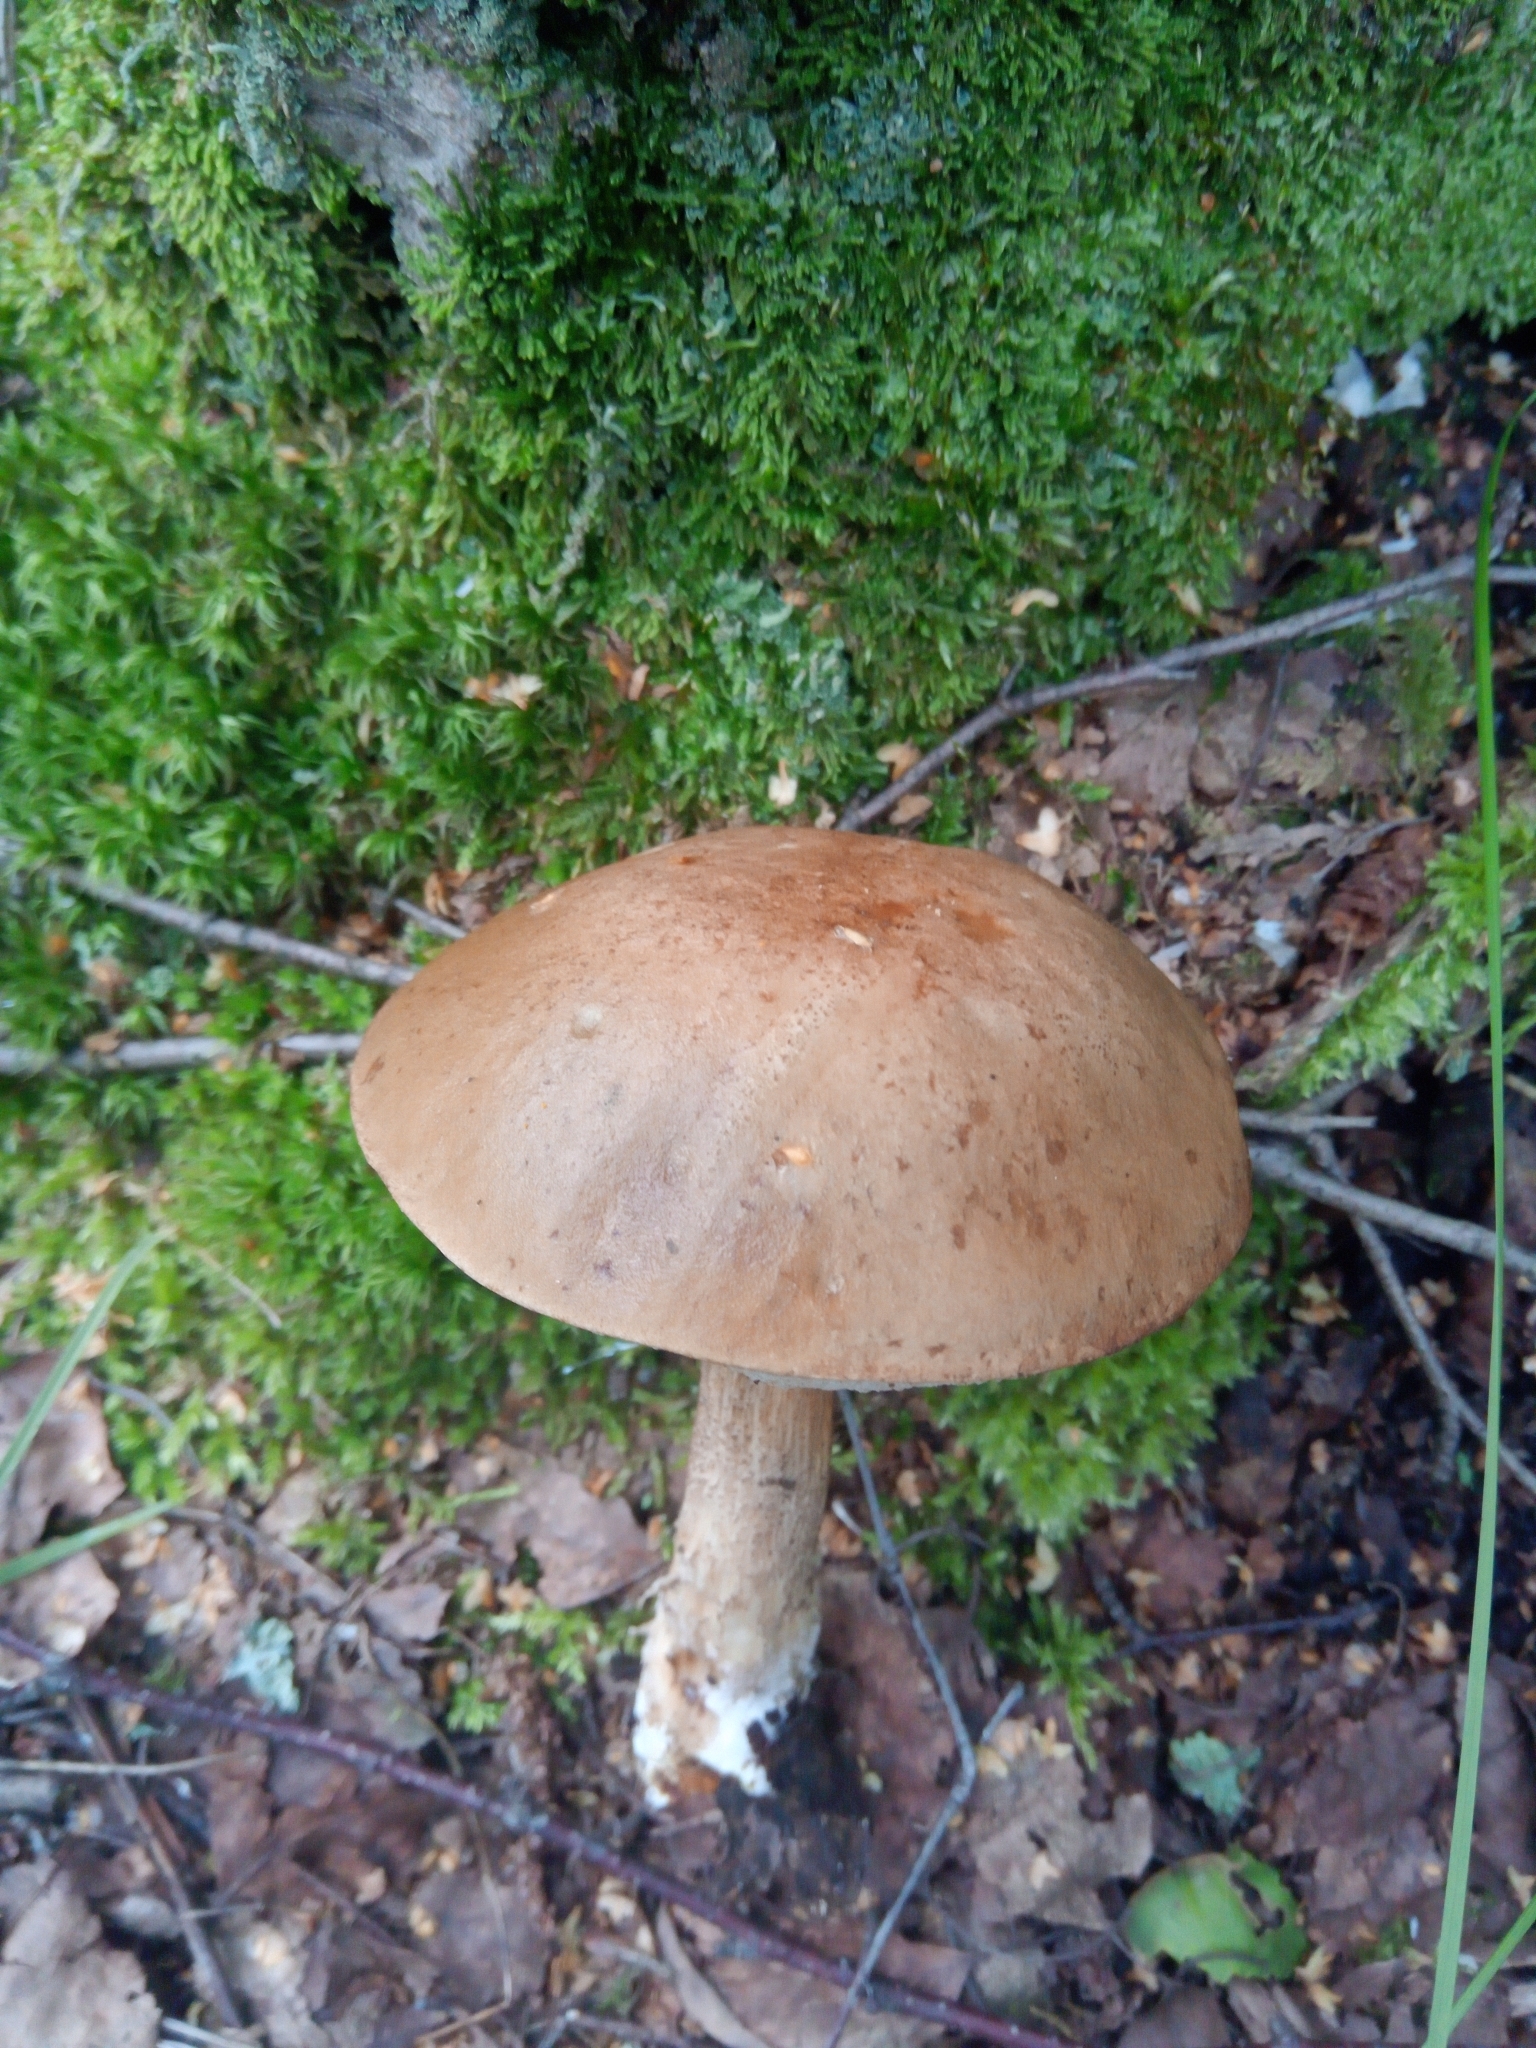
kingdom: Fungi
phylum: Basidiomycota
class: Agaricomycetes
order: Boletales
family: Boletaceae
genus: Leccinum
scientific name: Leccinum scabrum
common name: Blushing bolete
